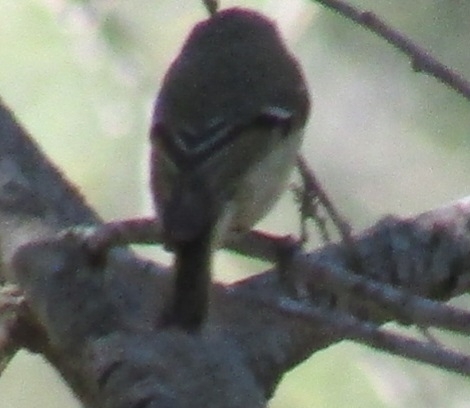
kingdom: Animalia
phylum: Chordata
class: Aves
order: Passeriformes
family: Regulidae
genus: Regulus
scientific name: Regulus calendula
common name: Ruby-crowned kinglet
